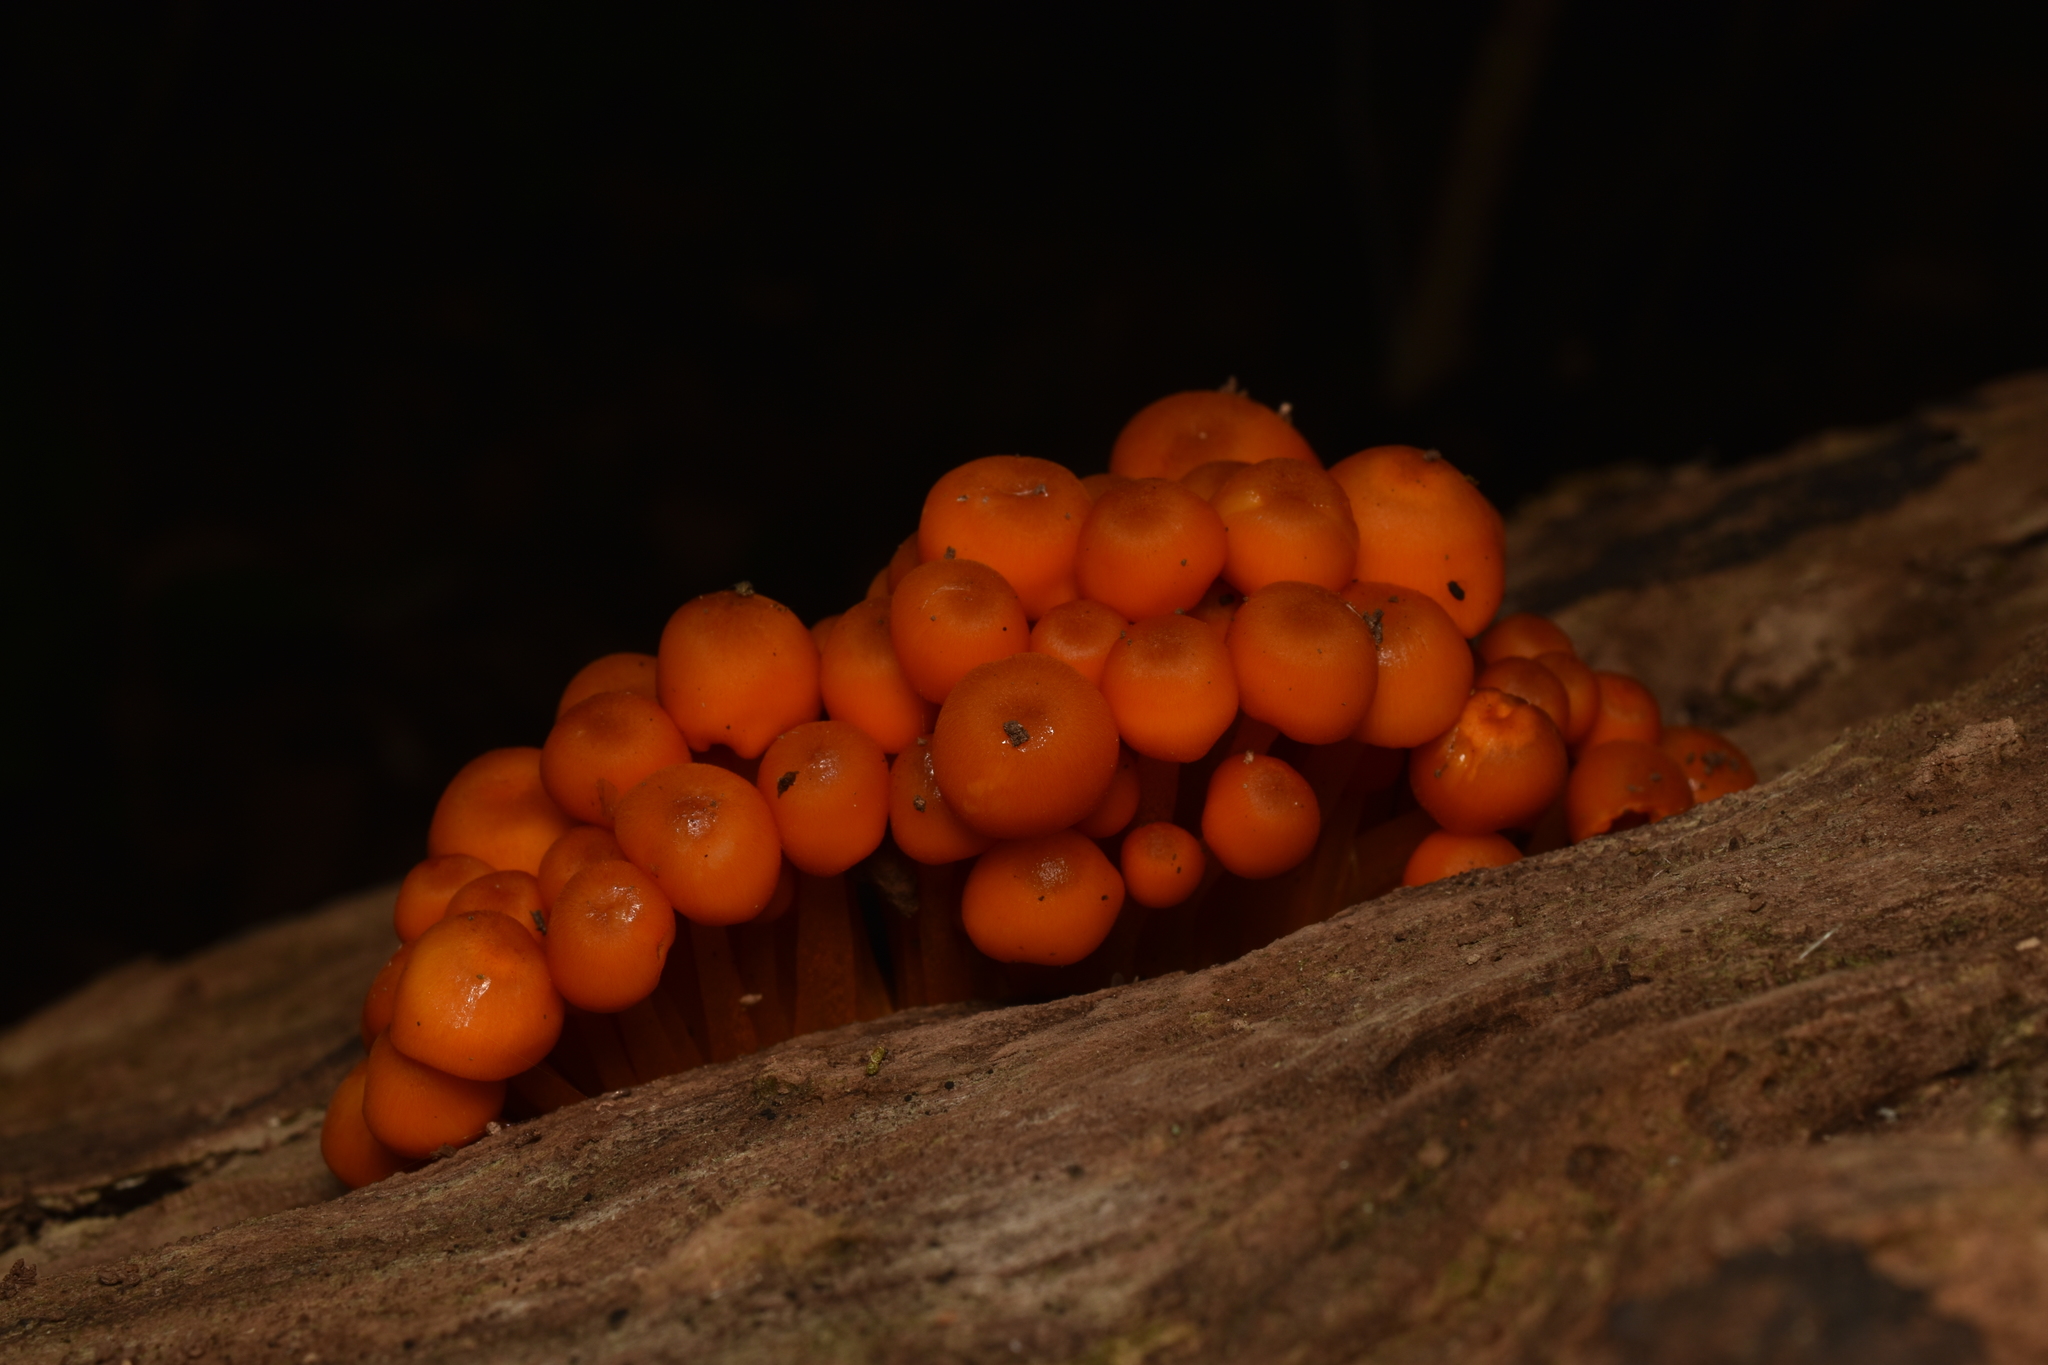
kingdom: Fungi
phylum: Basidiomycota
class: Agaricomycetes
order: Agaricales
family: Mycenaceae
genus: Mycena
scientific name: Mycena leaiana
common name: Orange mycena
